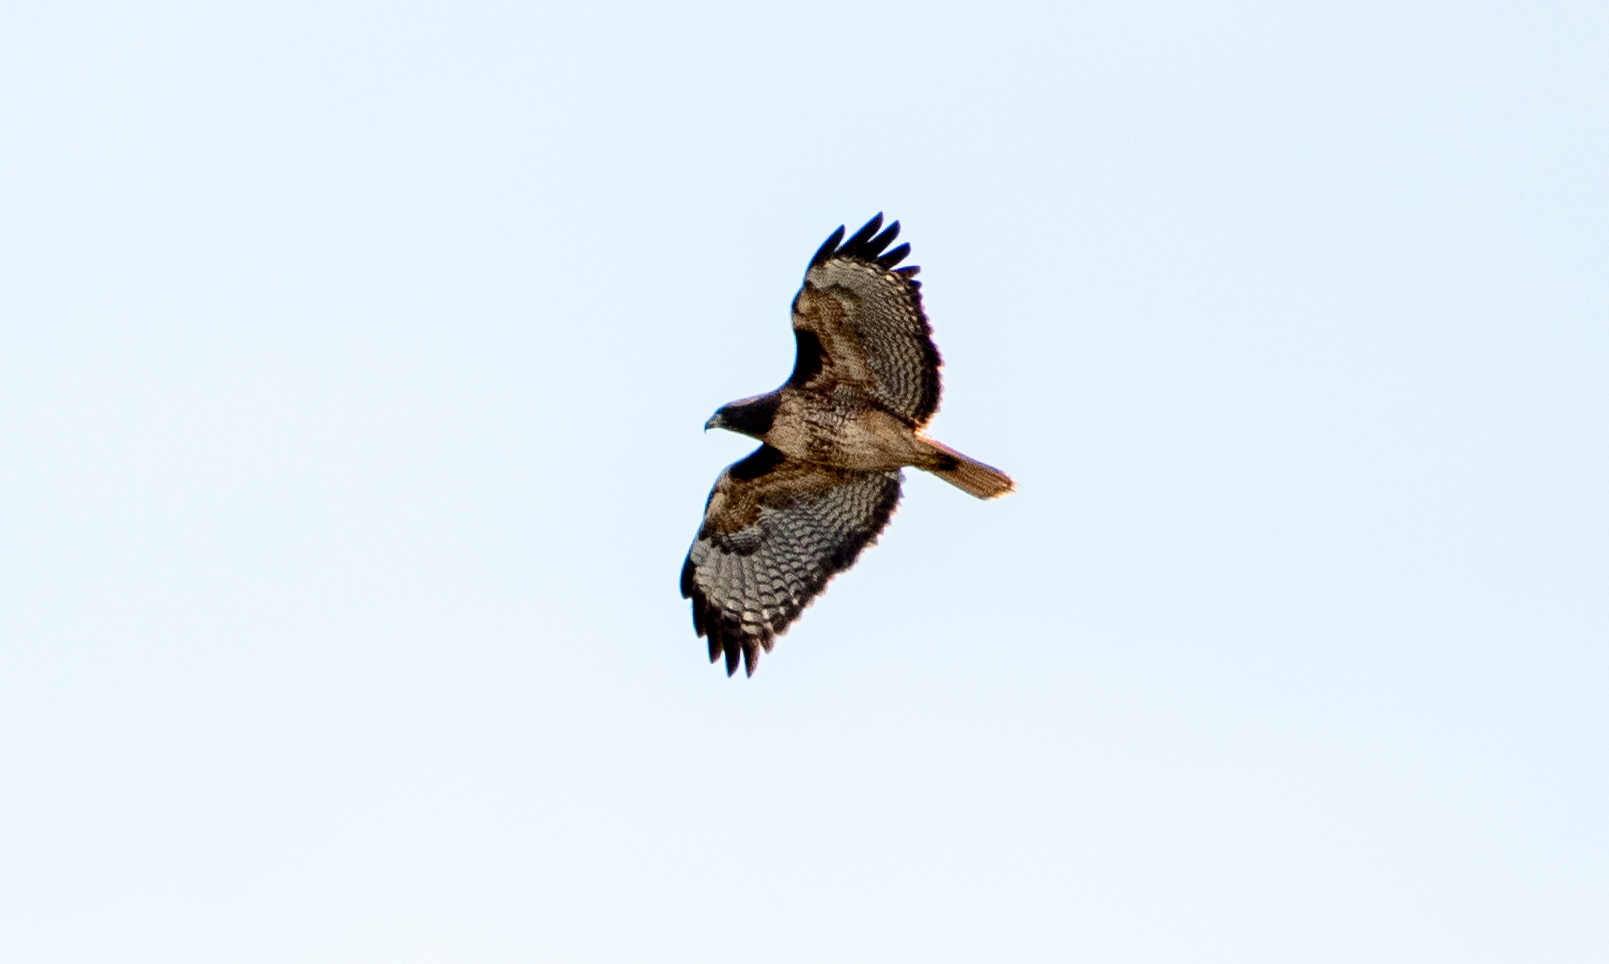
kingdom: Animalia
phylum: Chordata
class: Aves
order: Accipitriformes
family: Accipitridae
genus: Buteo
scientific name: Buteo jamaicensis
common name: Red-tailed hawk
